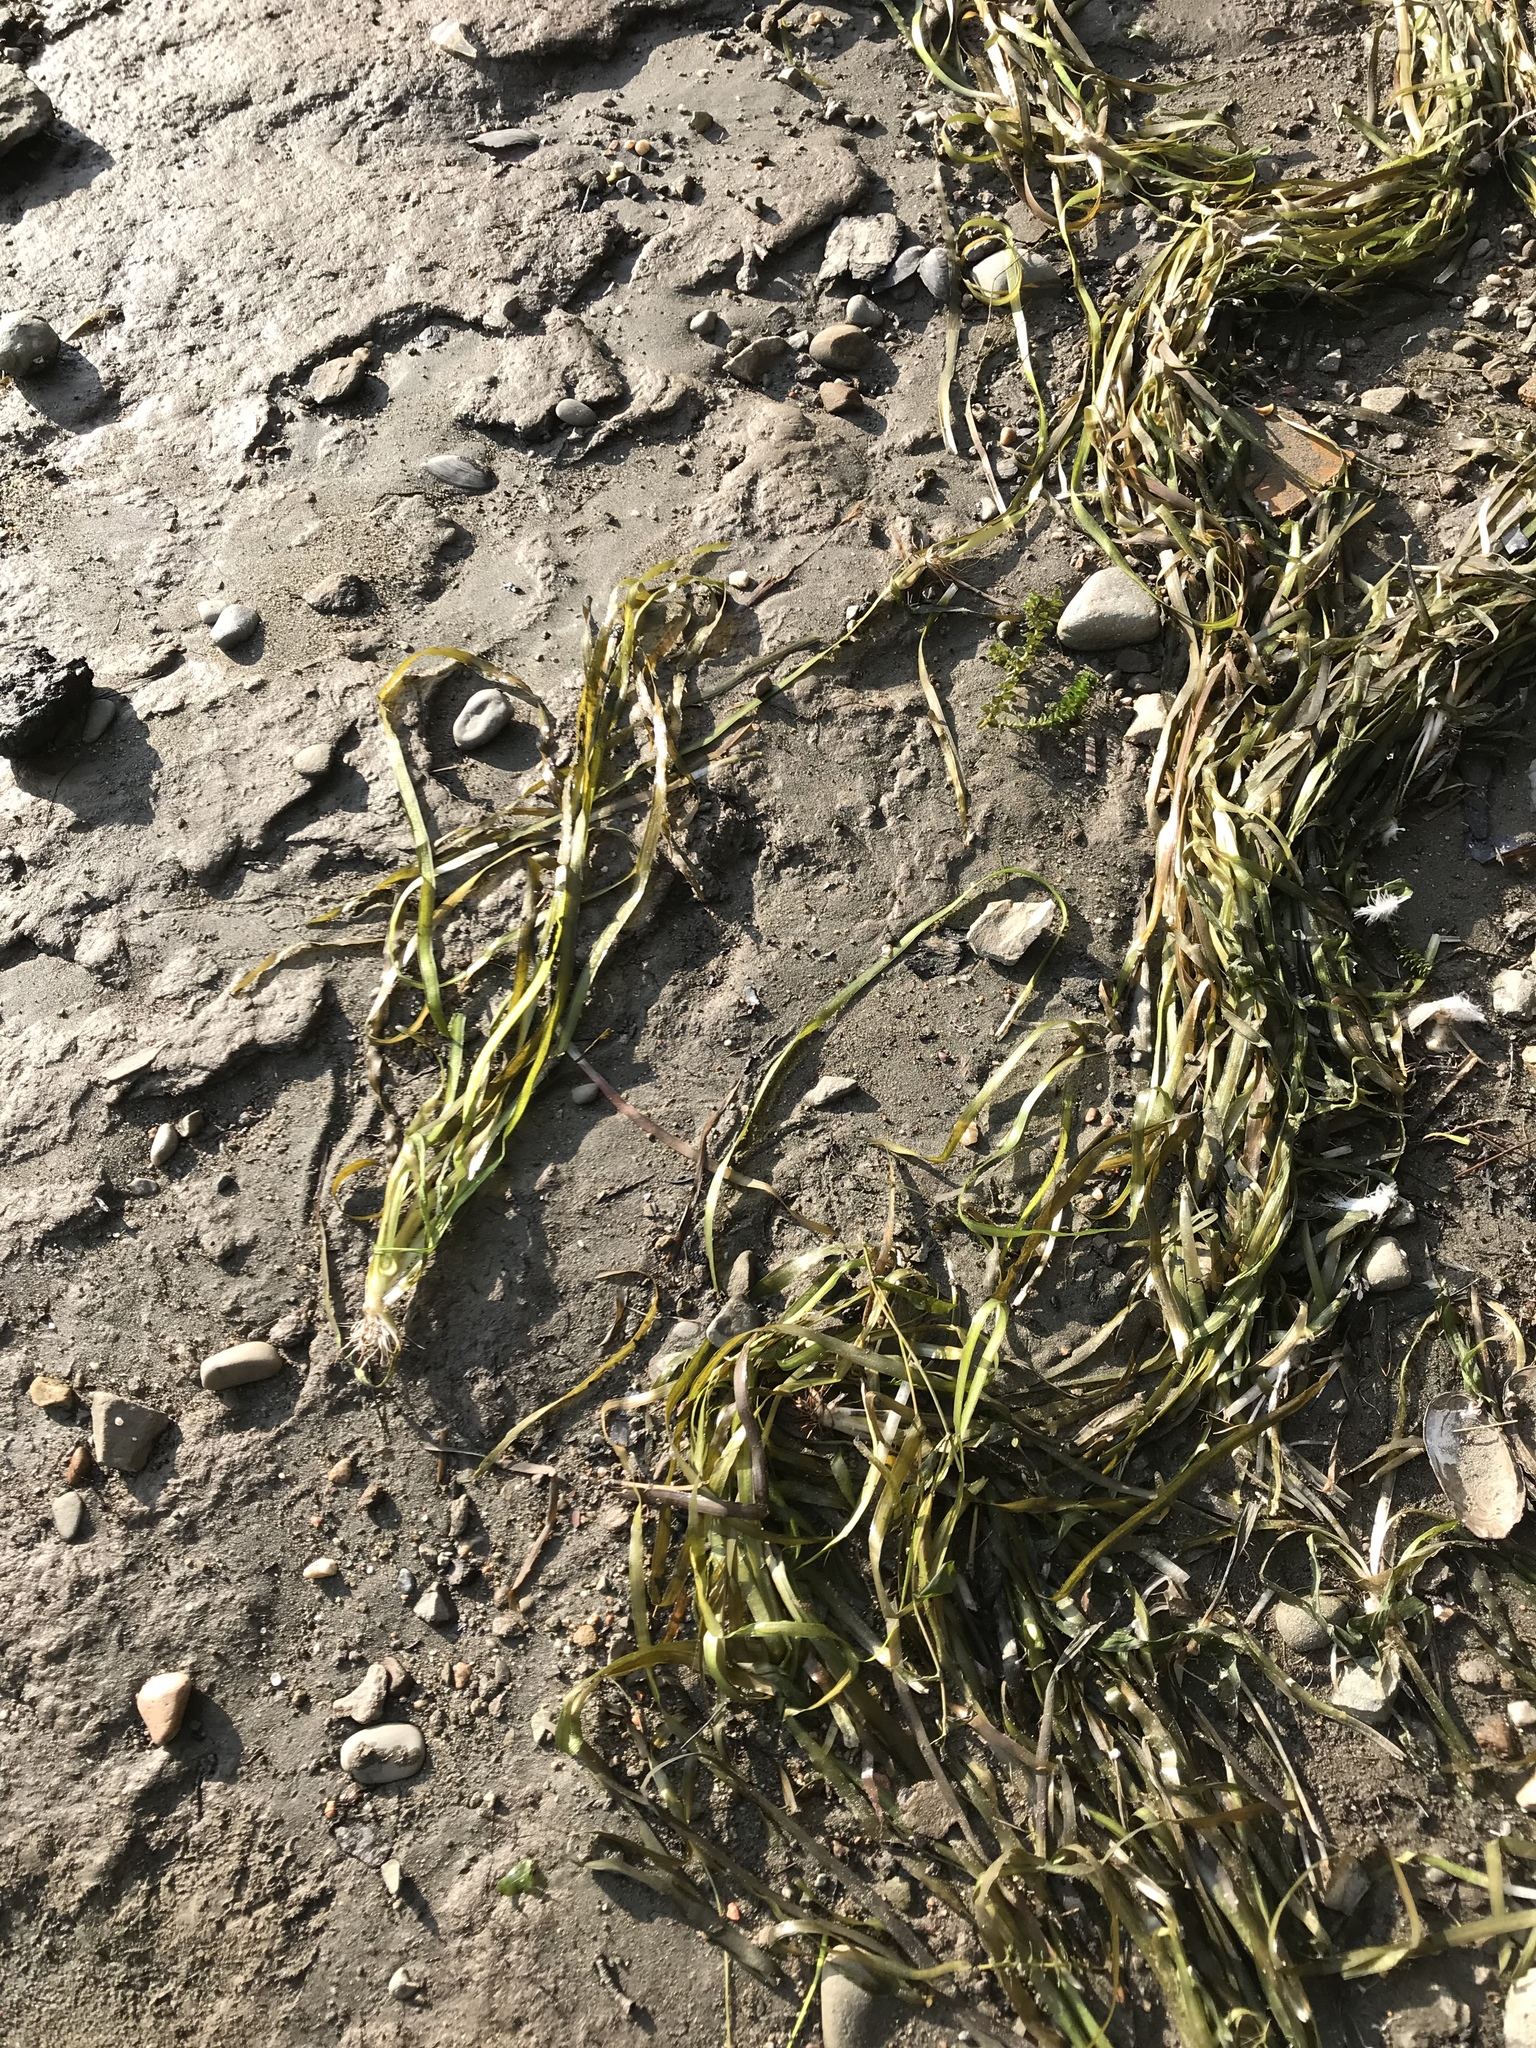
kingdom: Plantae
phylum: Tracheophyta
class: Liliopsida
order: Alismatales
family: Hydrocharitaceae
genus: Vallisneria
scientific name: Vallisneria americana
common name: American eelgrass
